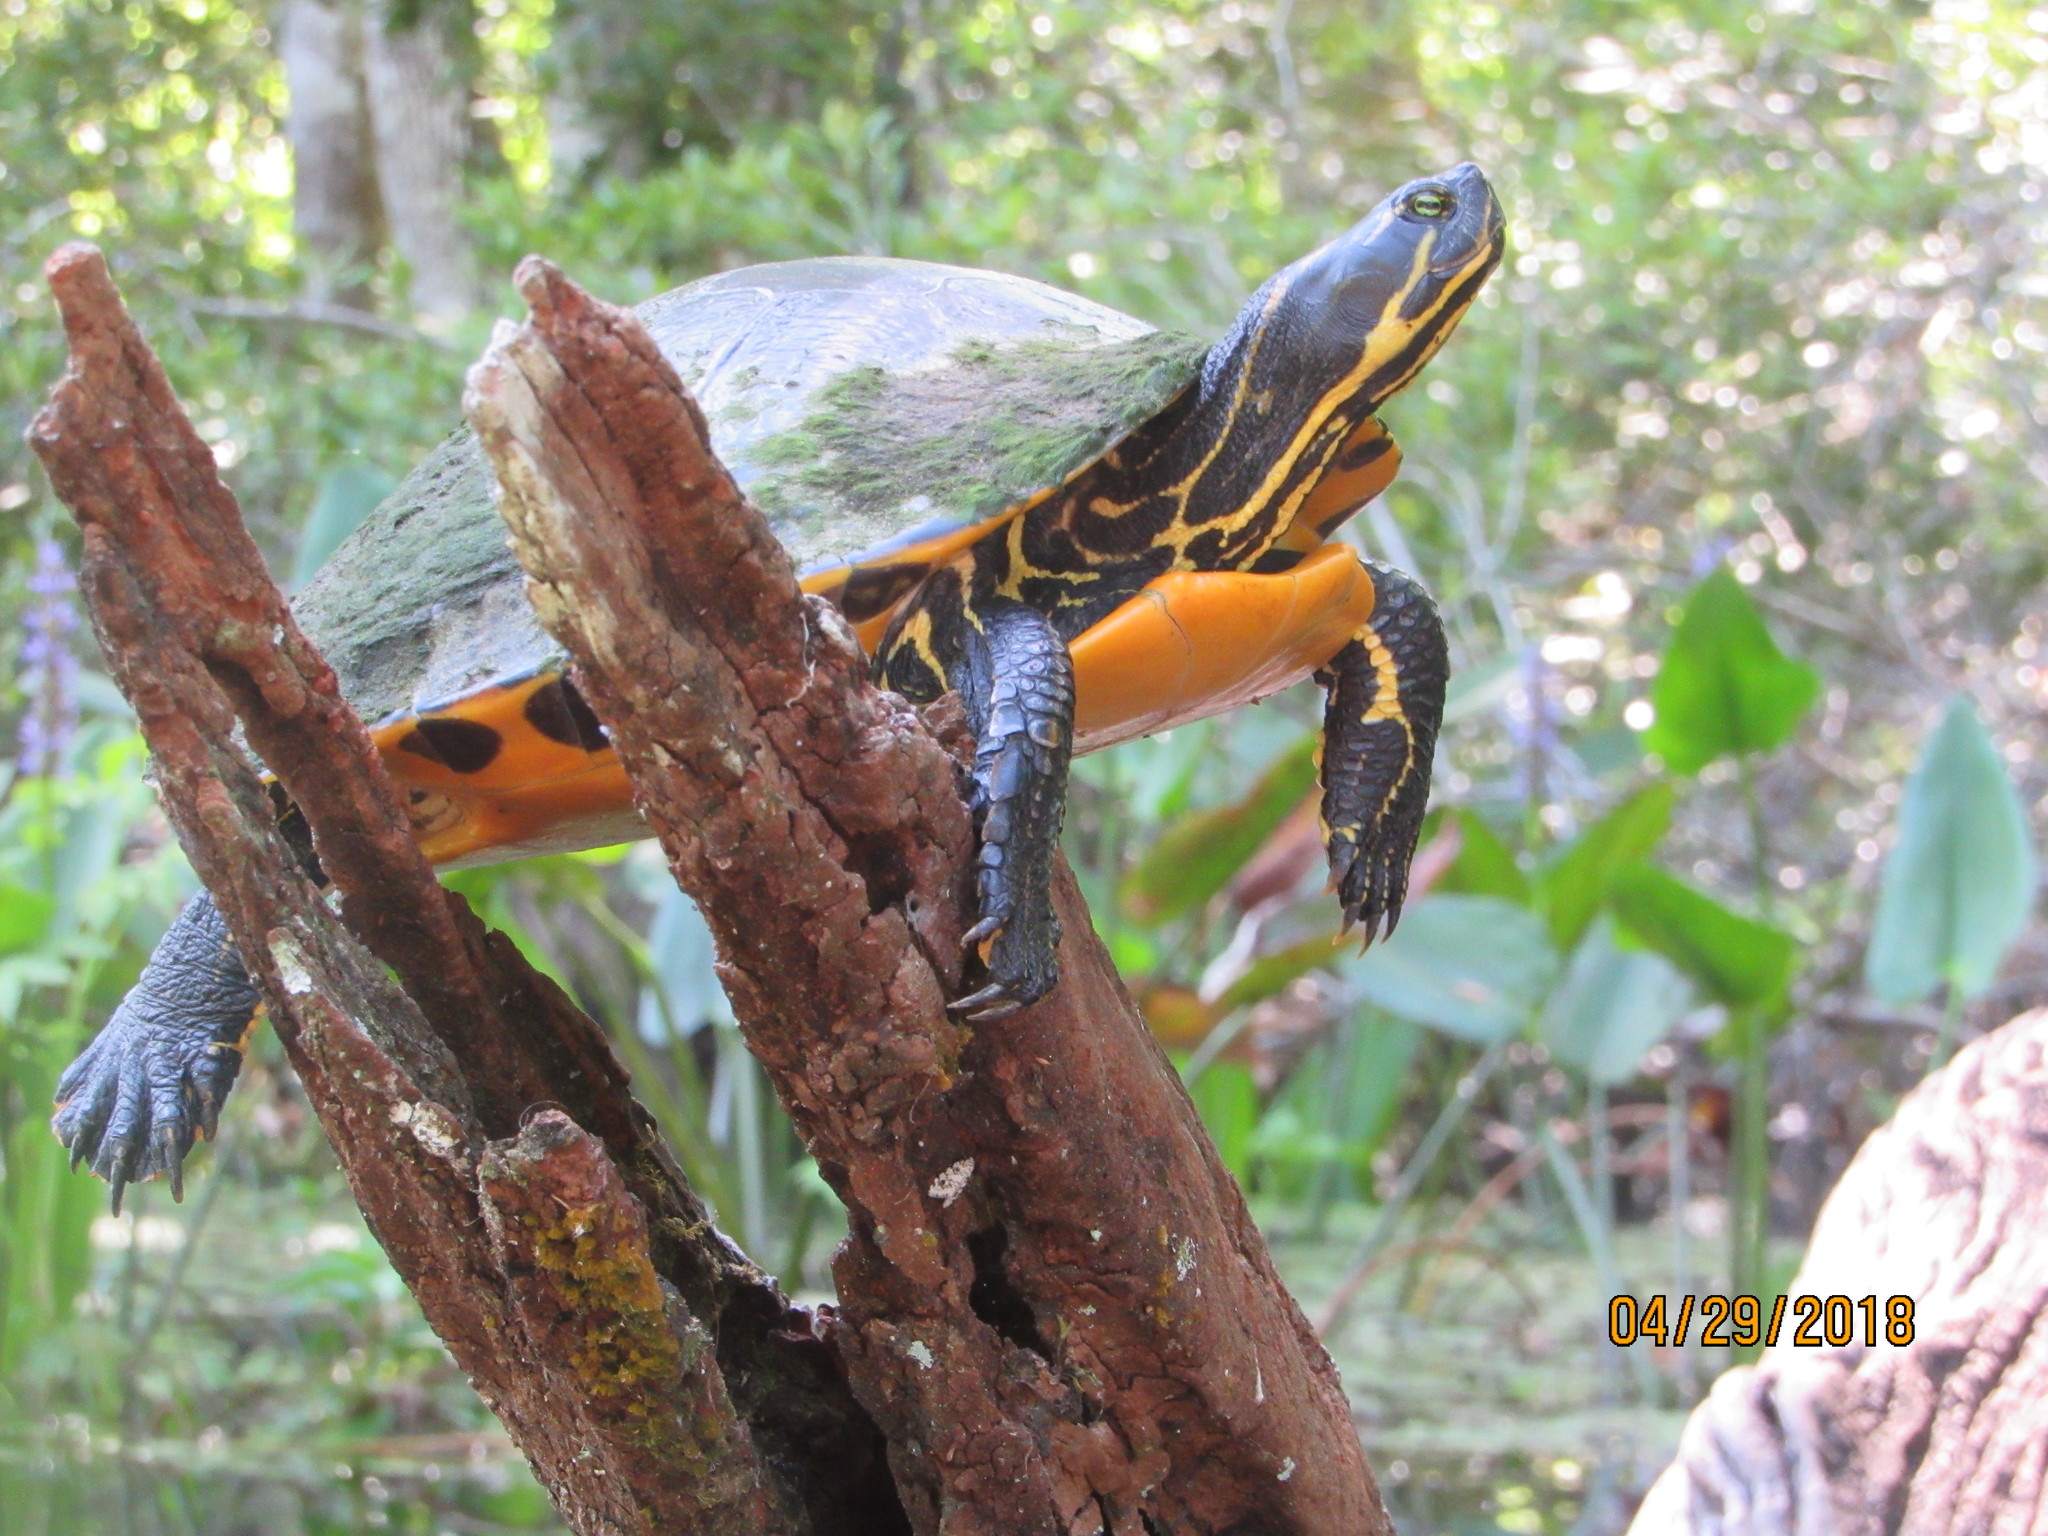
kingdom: Animalia
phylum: Chordata
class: Testudines
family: Emydidae
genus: Pseudemys
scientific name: Pseudemys concinna
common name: Eastern river cooter
